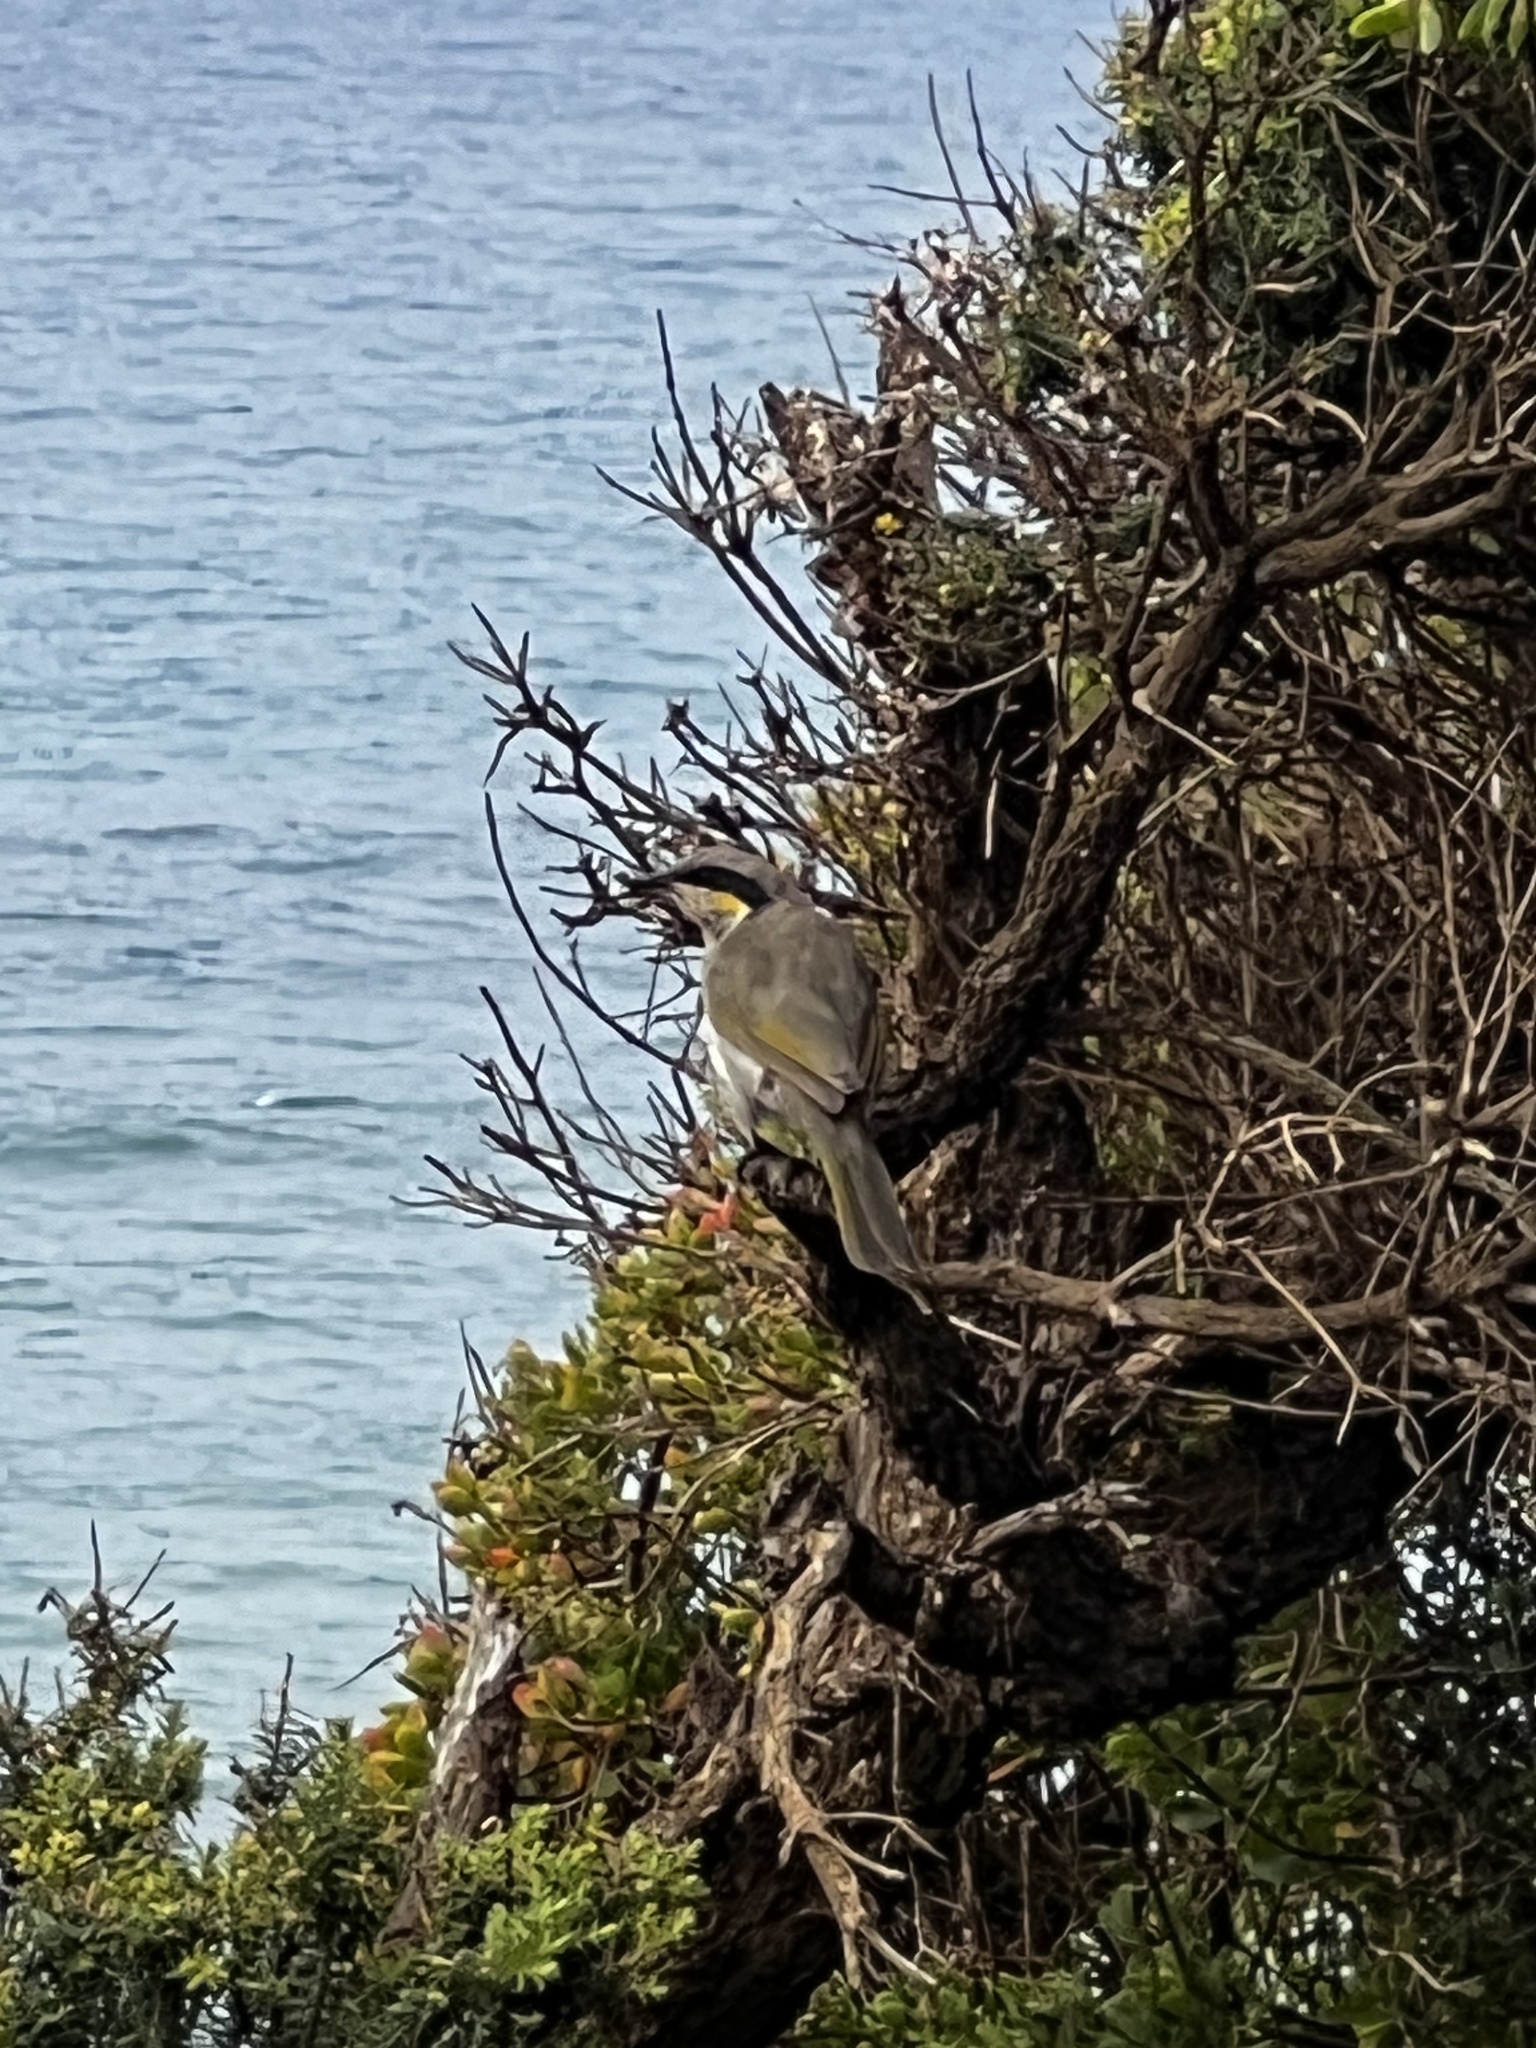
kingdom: Animalia
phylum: Chordata
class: Aves
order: Passeriformes
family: Meliphagidae
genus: Gavicalis
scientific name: Gavicalis virescens
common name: Singing honeyeater
